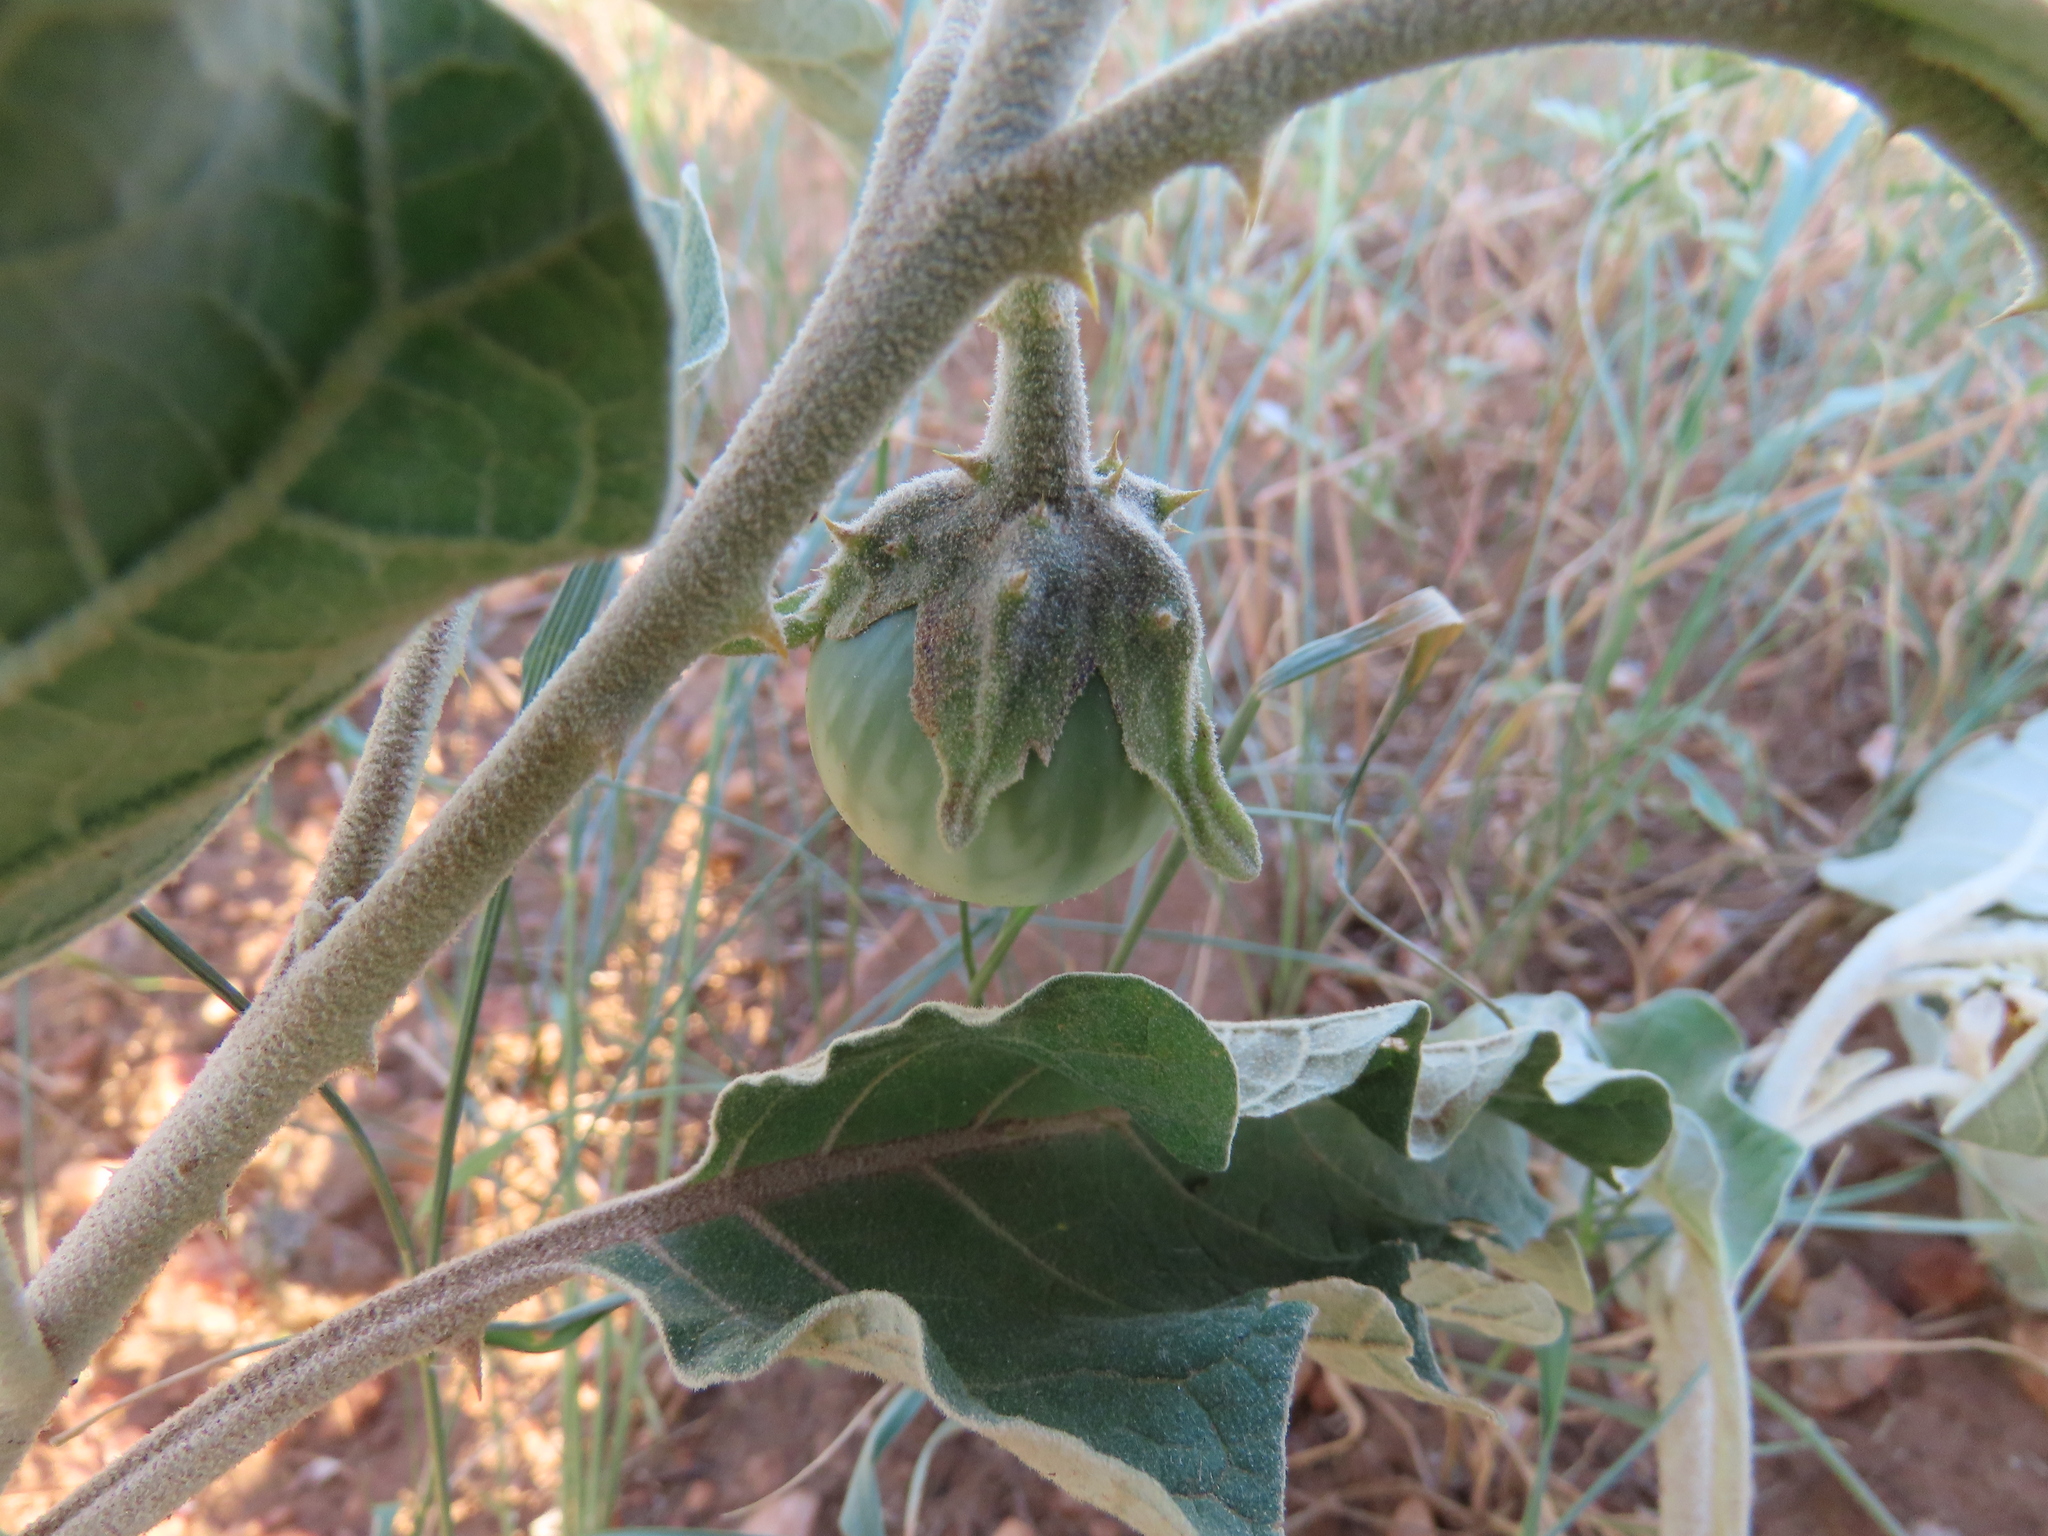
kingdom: Plantae
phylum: Tracheophyta
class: Magnoliopsida
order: Solanales
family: Solanaceae
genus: Solanum
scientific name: Solanum lichtensteinii
